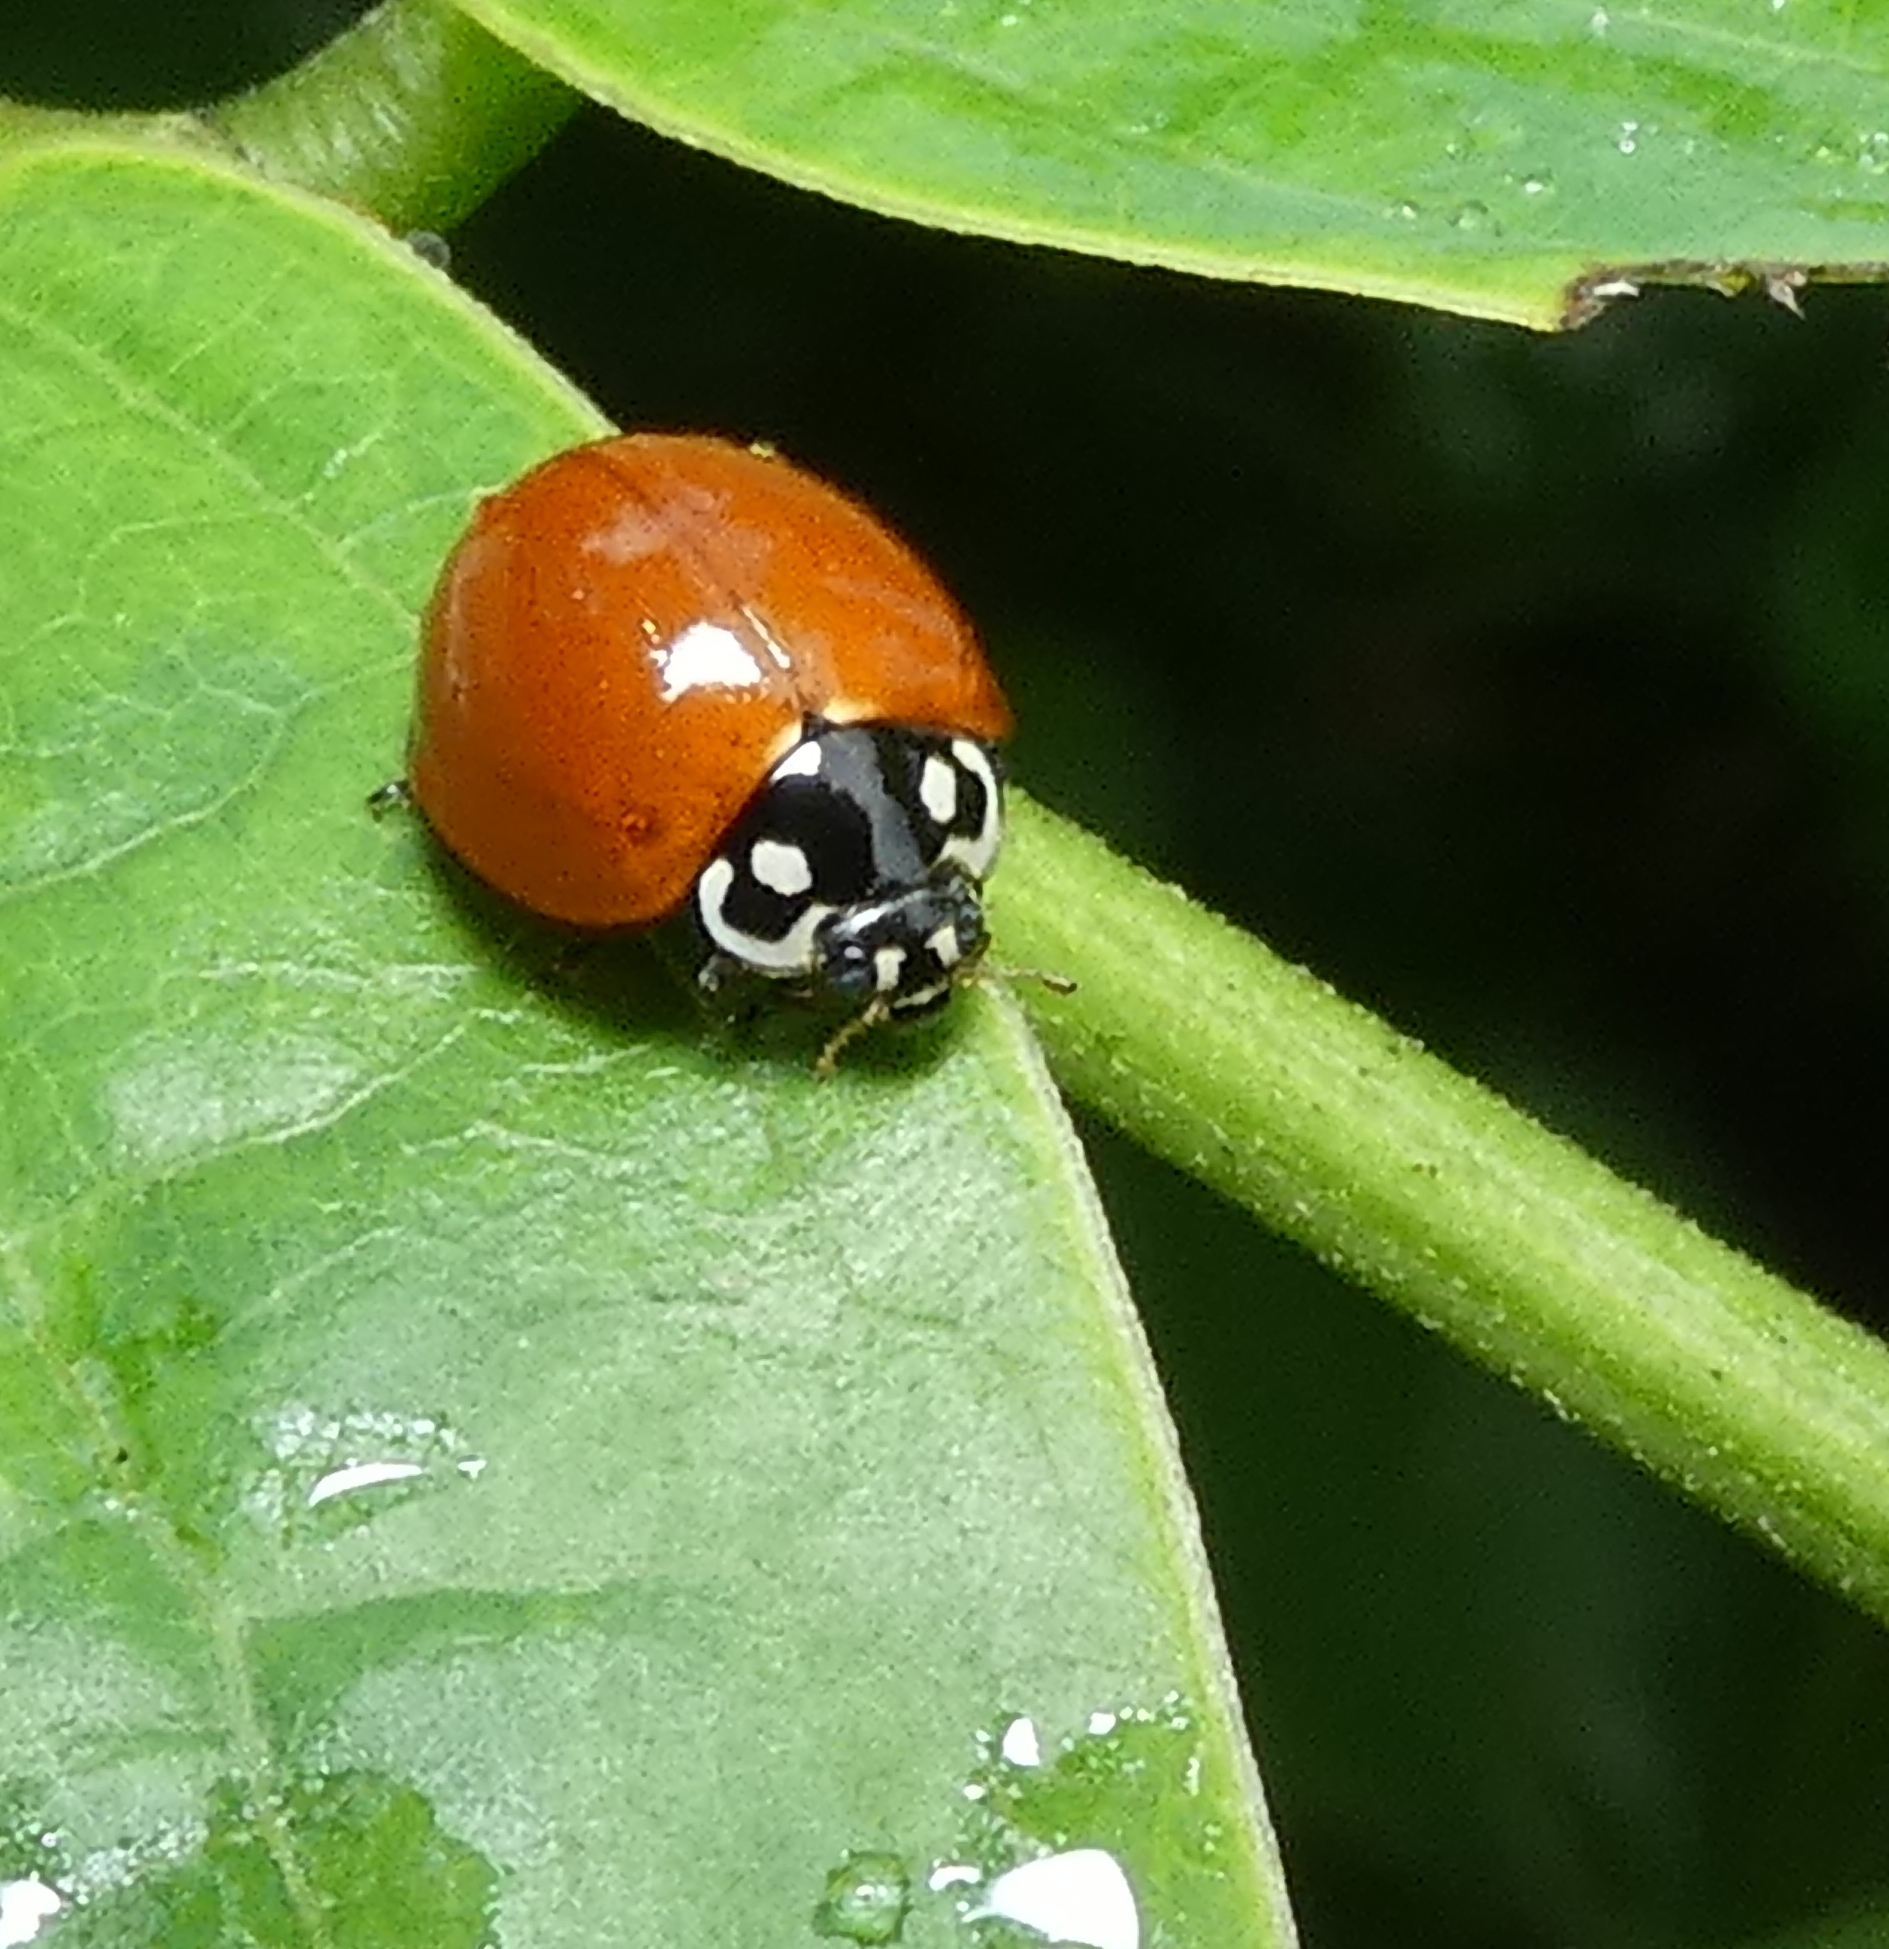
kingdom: Animalia
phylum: Arthropoda
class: Insecta
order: Coleoptera
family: Coccinellidae
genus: Cycloneda
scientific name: Cycloneda sanguinea
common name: Ladybird beetle
